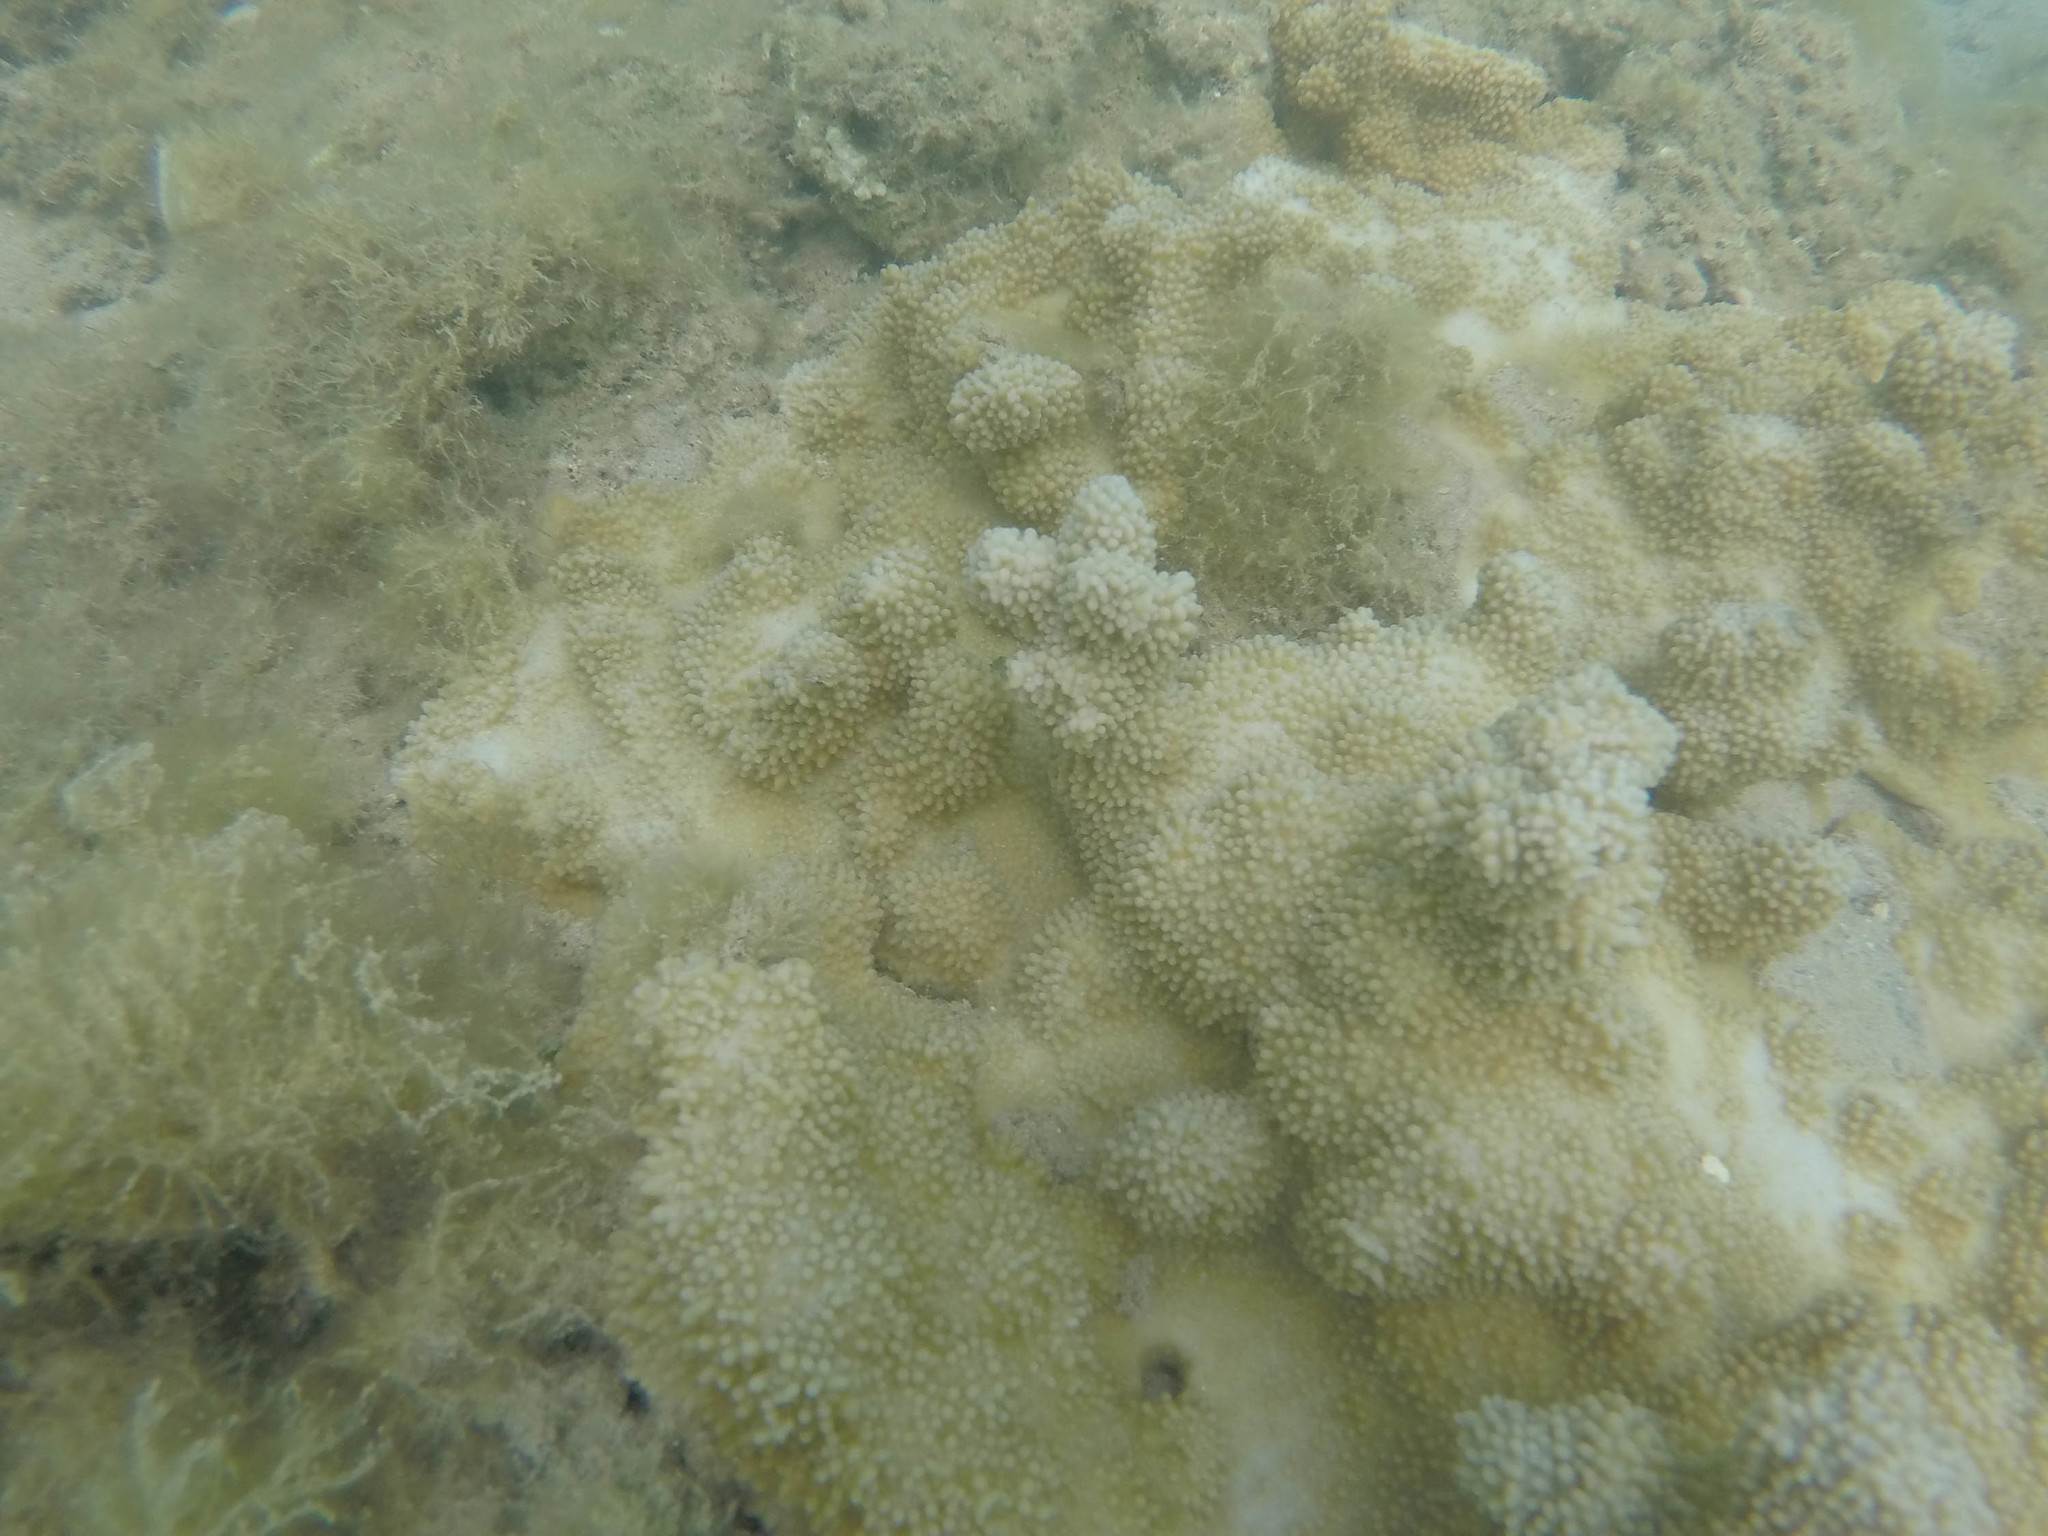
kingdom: Animalia
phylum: Cnidaria
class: Anthozoa
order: Scleractinia
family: Acroporidae
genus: Montipora
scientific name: Montipora capitata
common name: Pore coral
